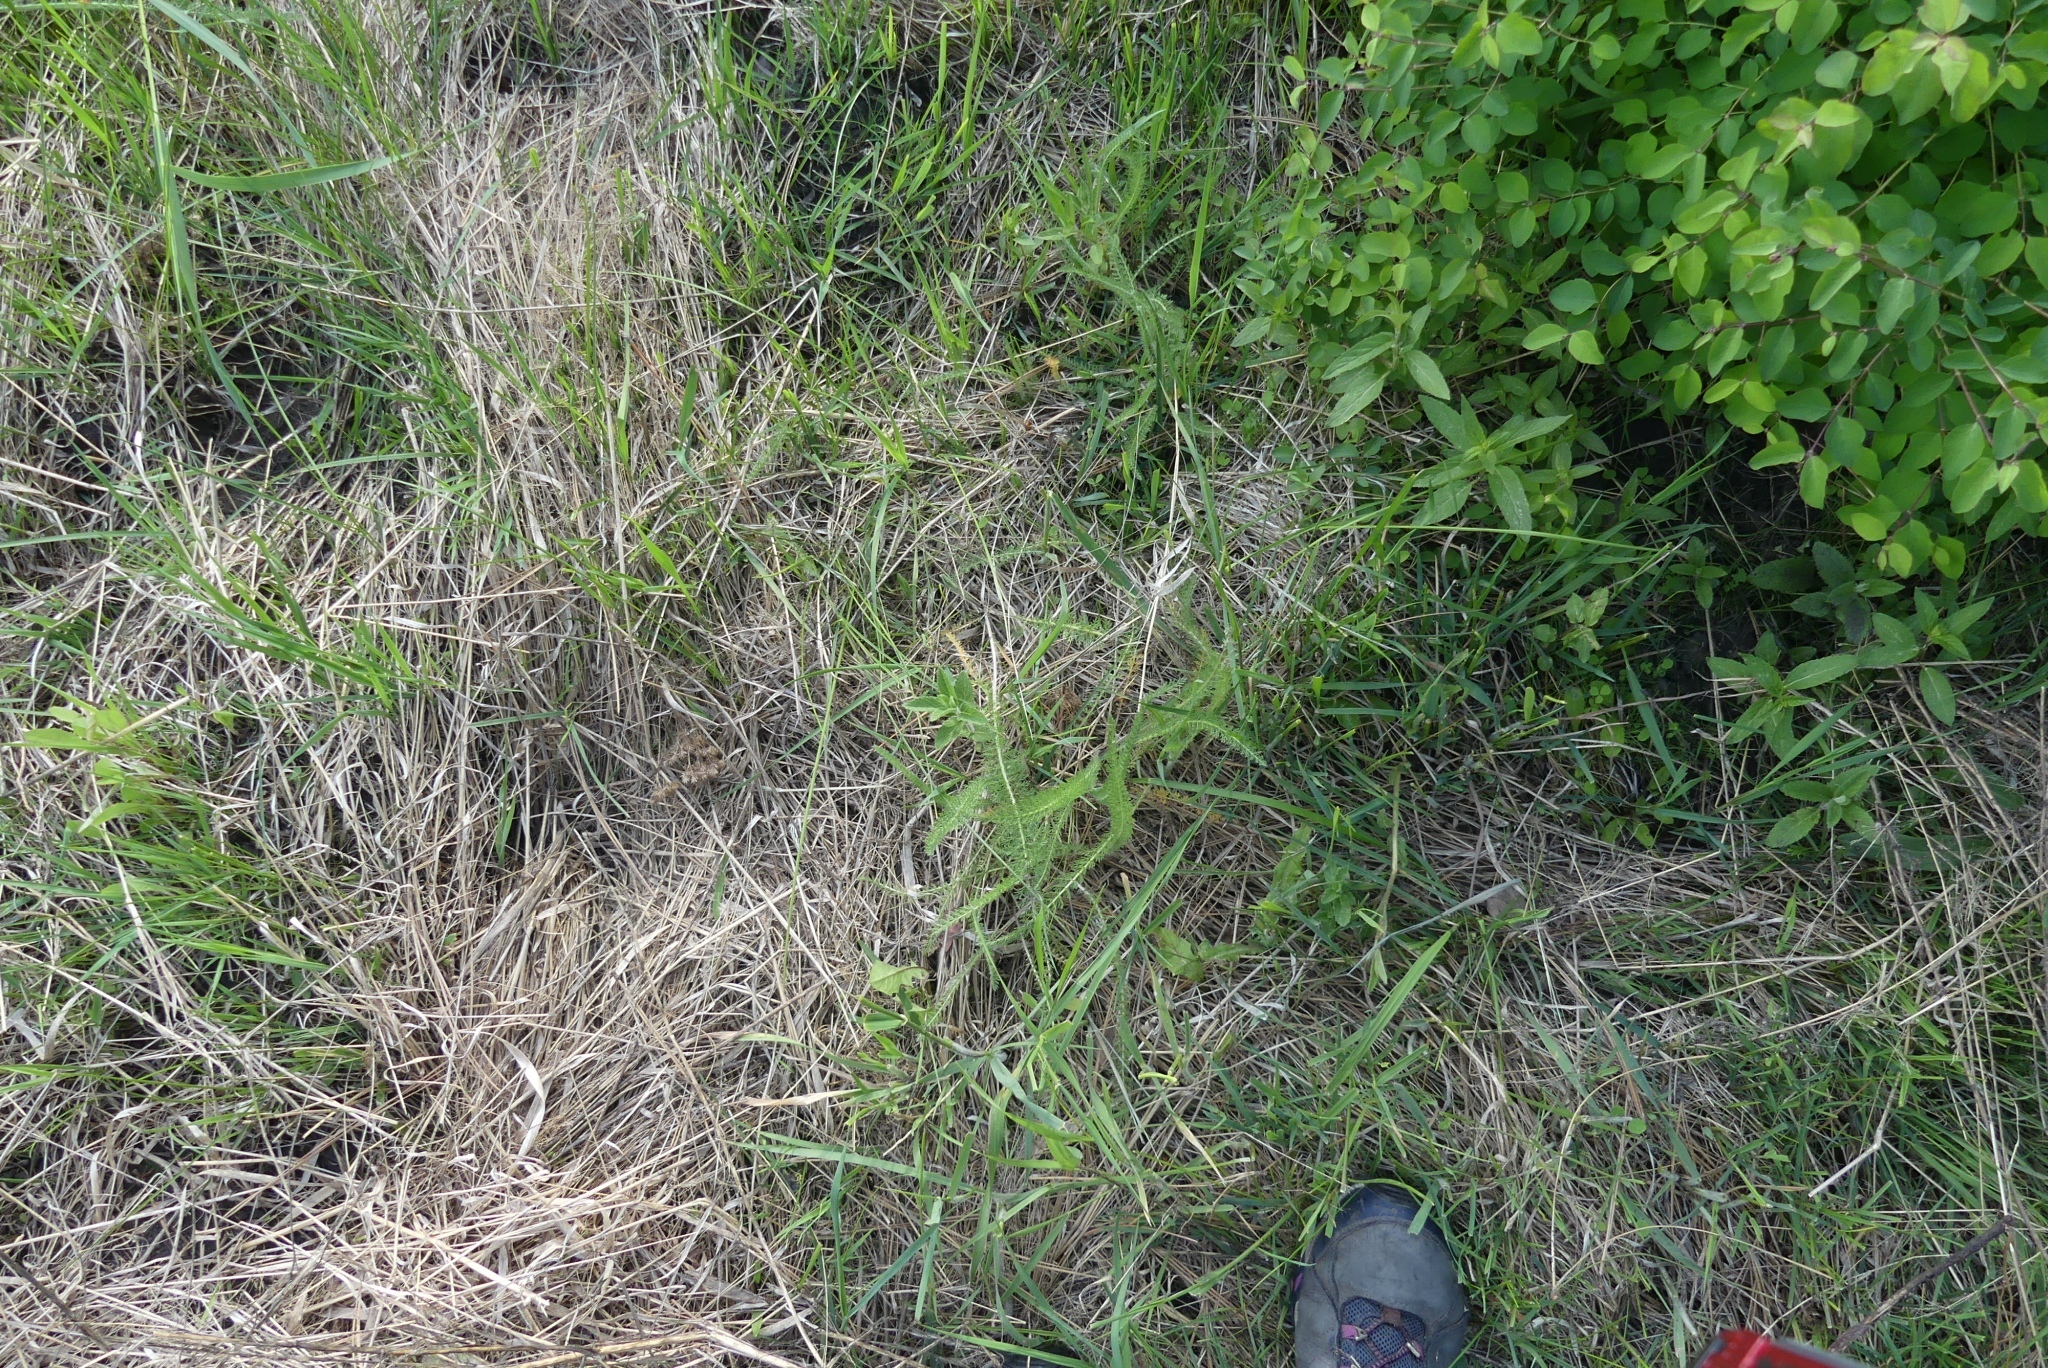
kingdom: Plantae
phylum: Tracheophyta
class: Magnoliopsida
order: Asterales
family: Asteraceae
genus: Achillea
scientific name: Achillea millefolium
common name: Yarrow
